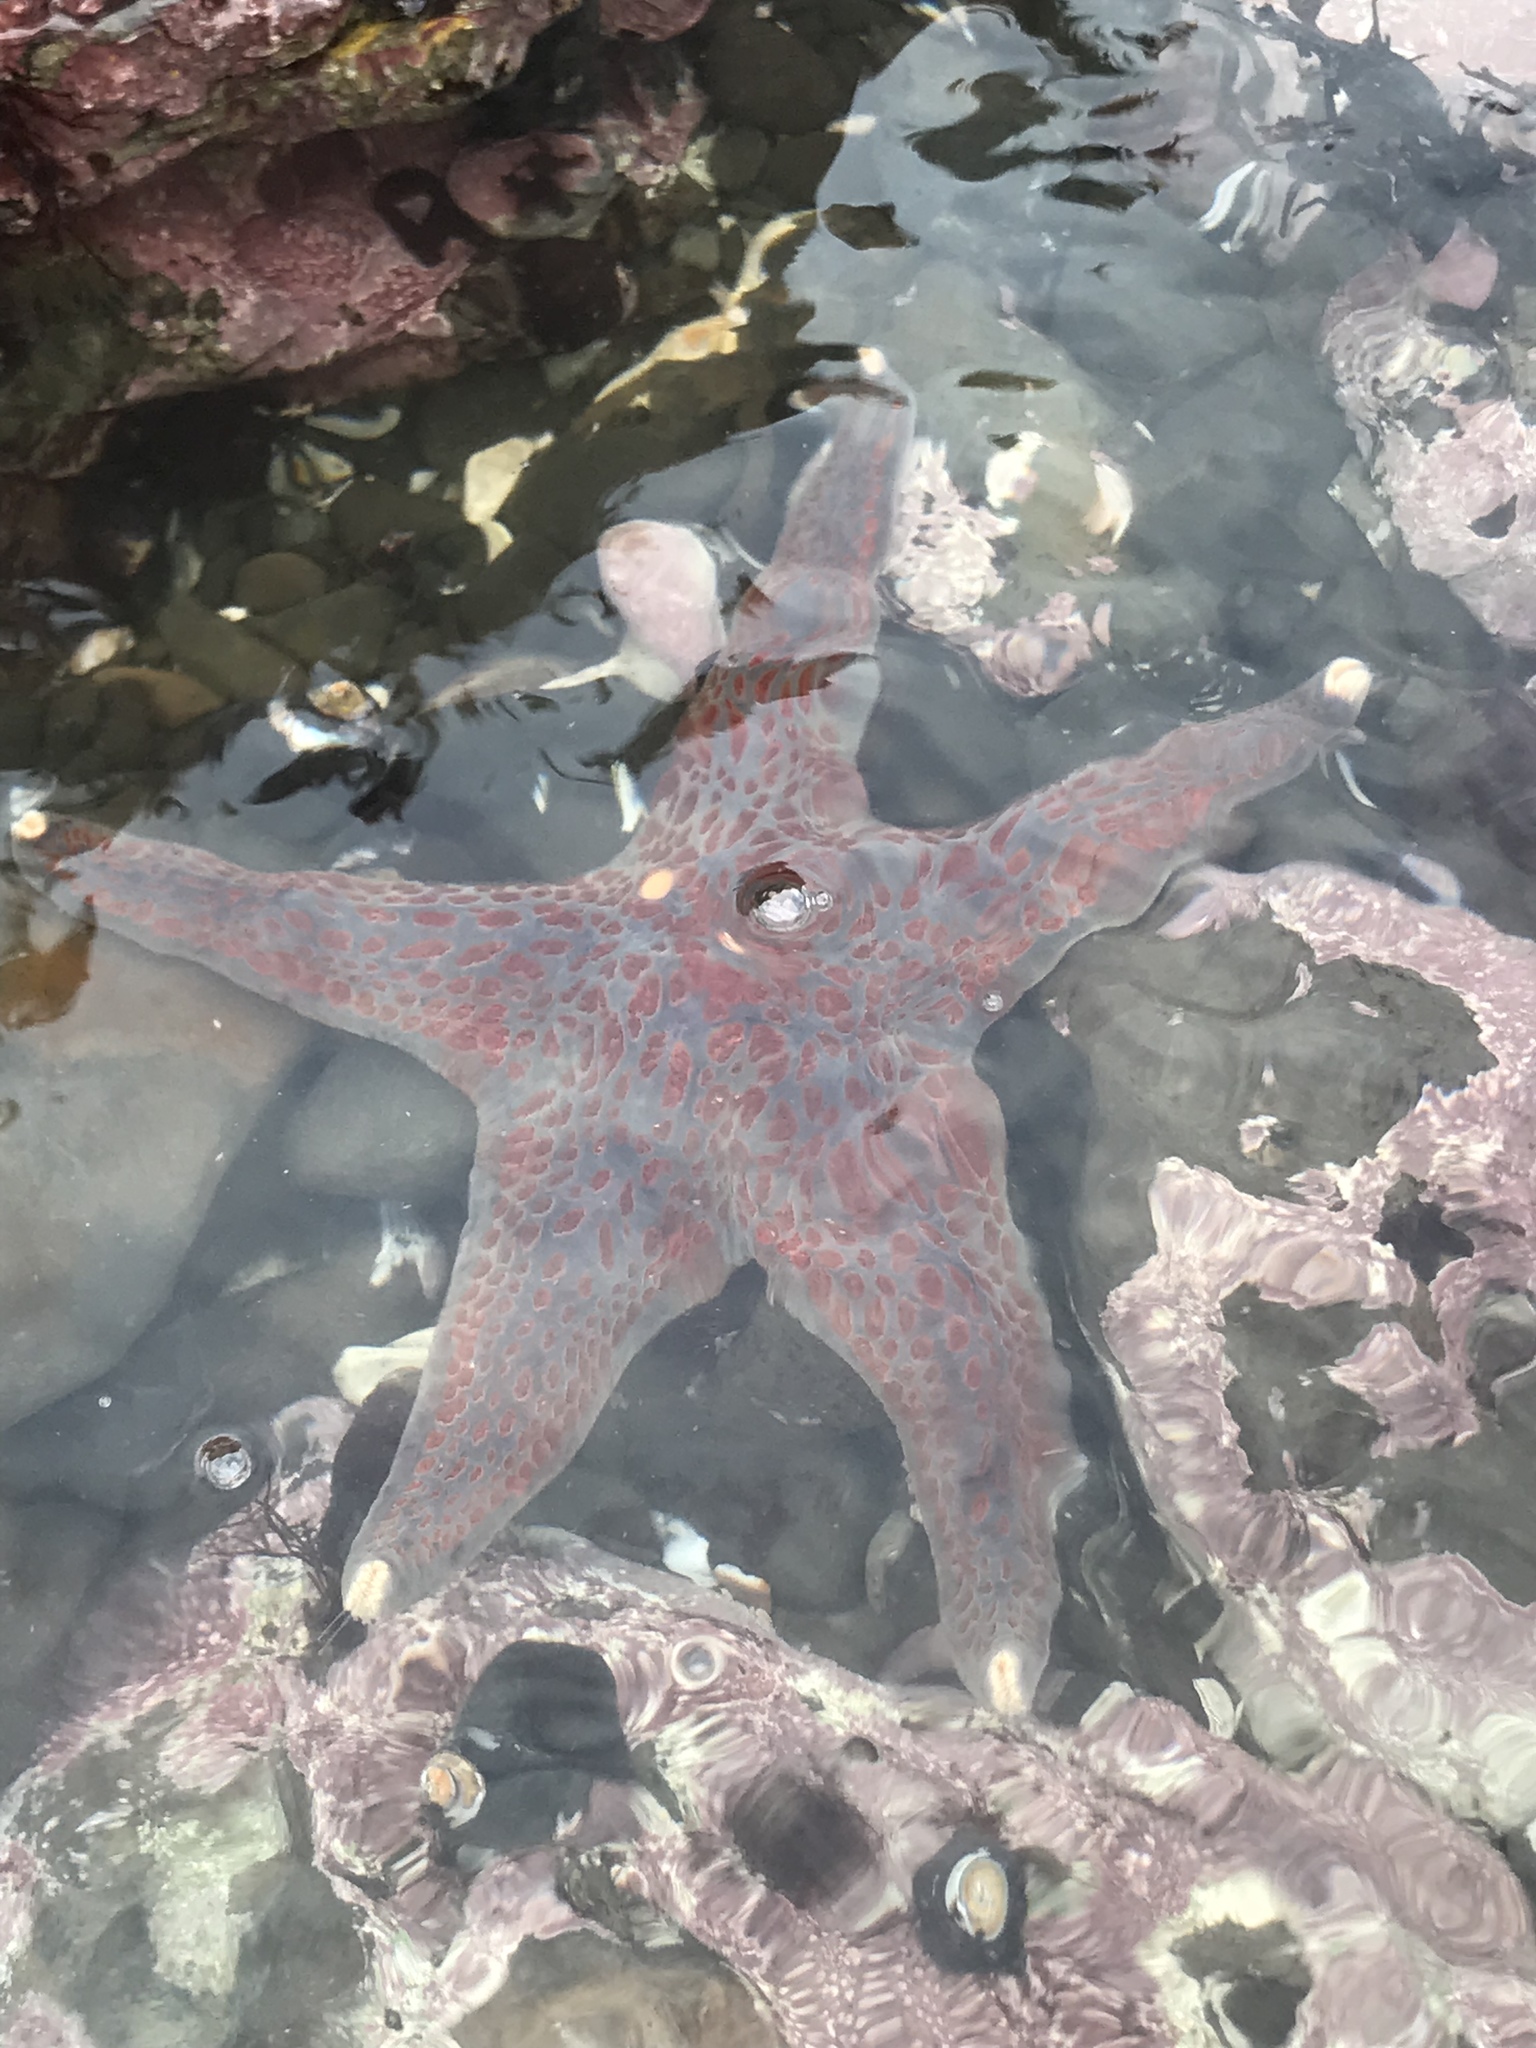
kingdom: Animalia
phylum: Echinodermata
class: Asteroidea
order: Valvatida
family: Asteropseidae
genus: Dermasterias
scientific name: Dermasterias imbricata
